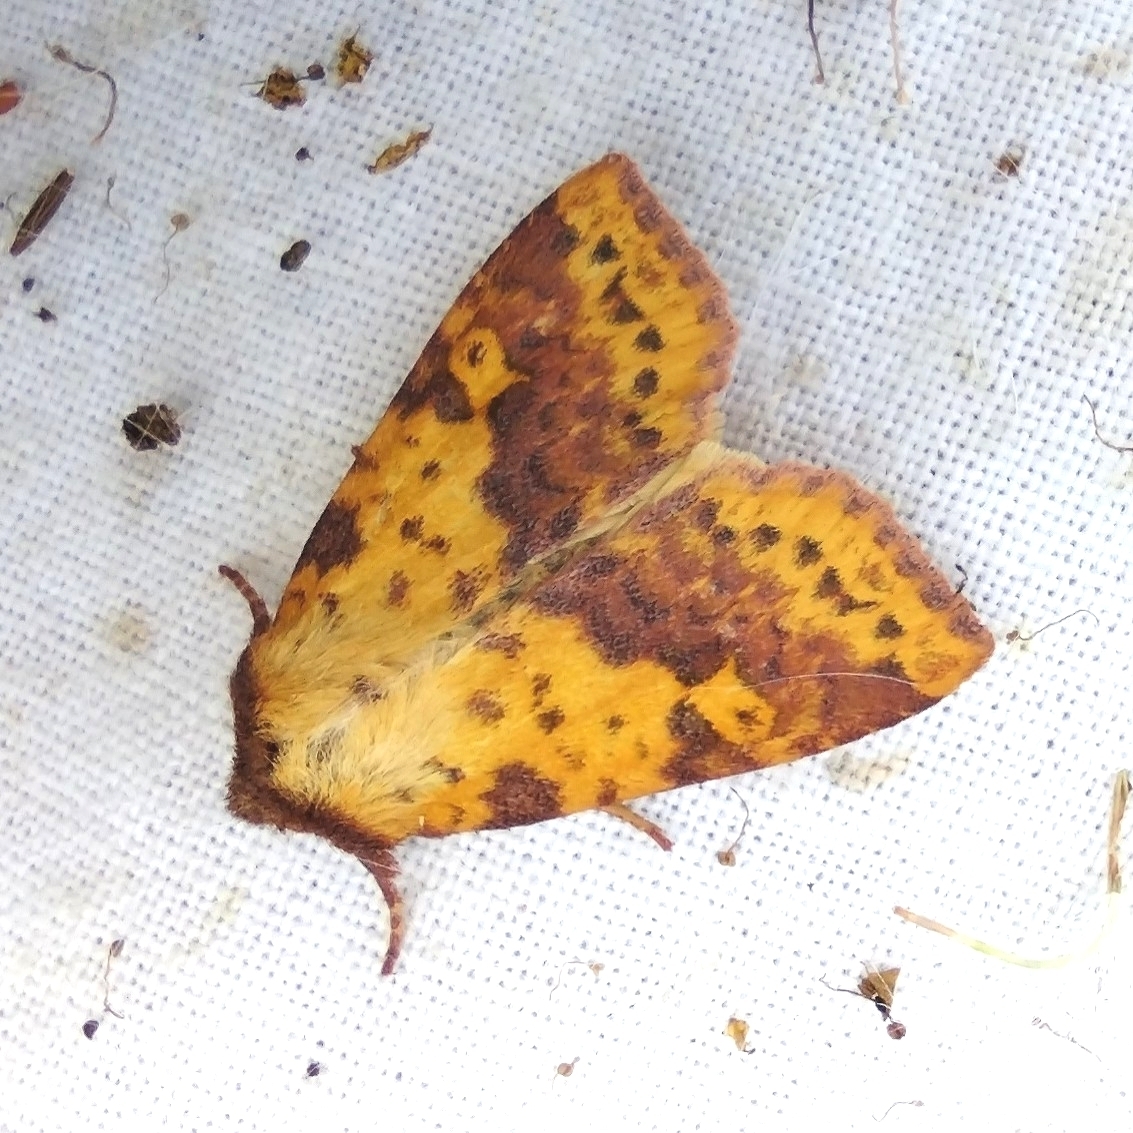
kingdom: Animalia
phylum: Arthropoda
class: Insecta
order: Lepidoptera
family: Noctuidae
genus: Xanthia
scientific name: Xanthia togata
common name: Pink-barred sallow
